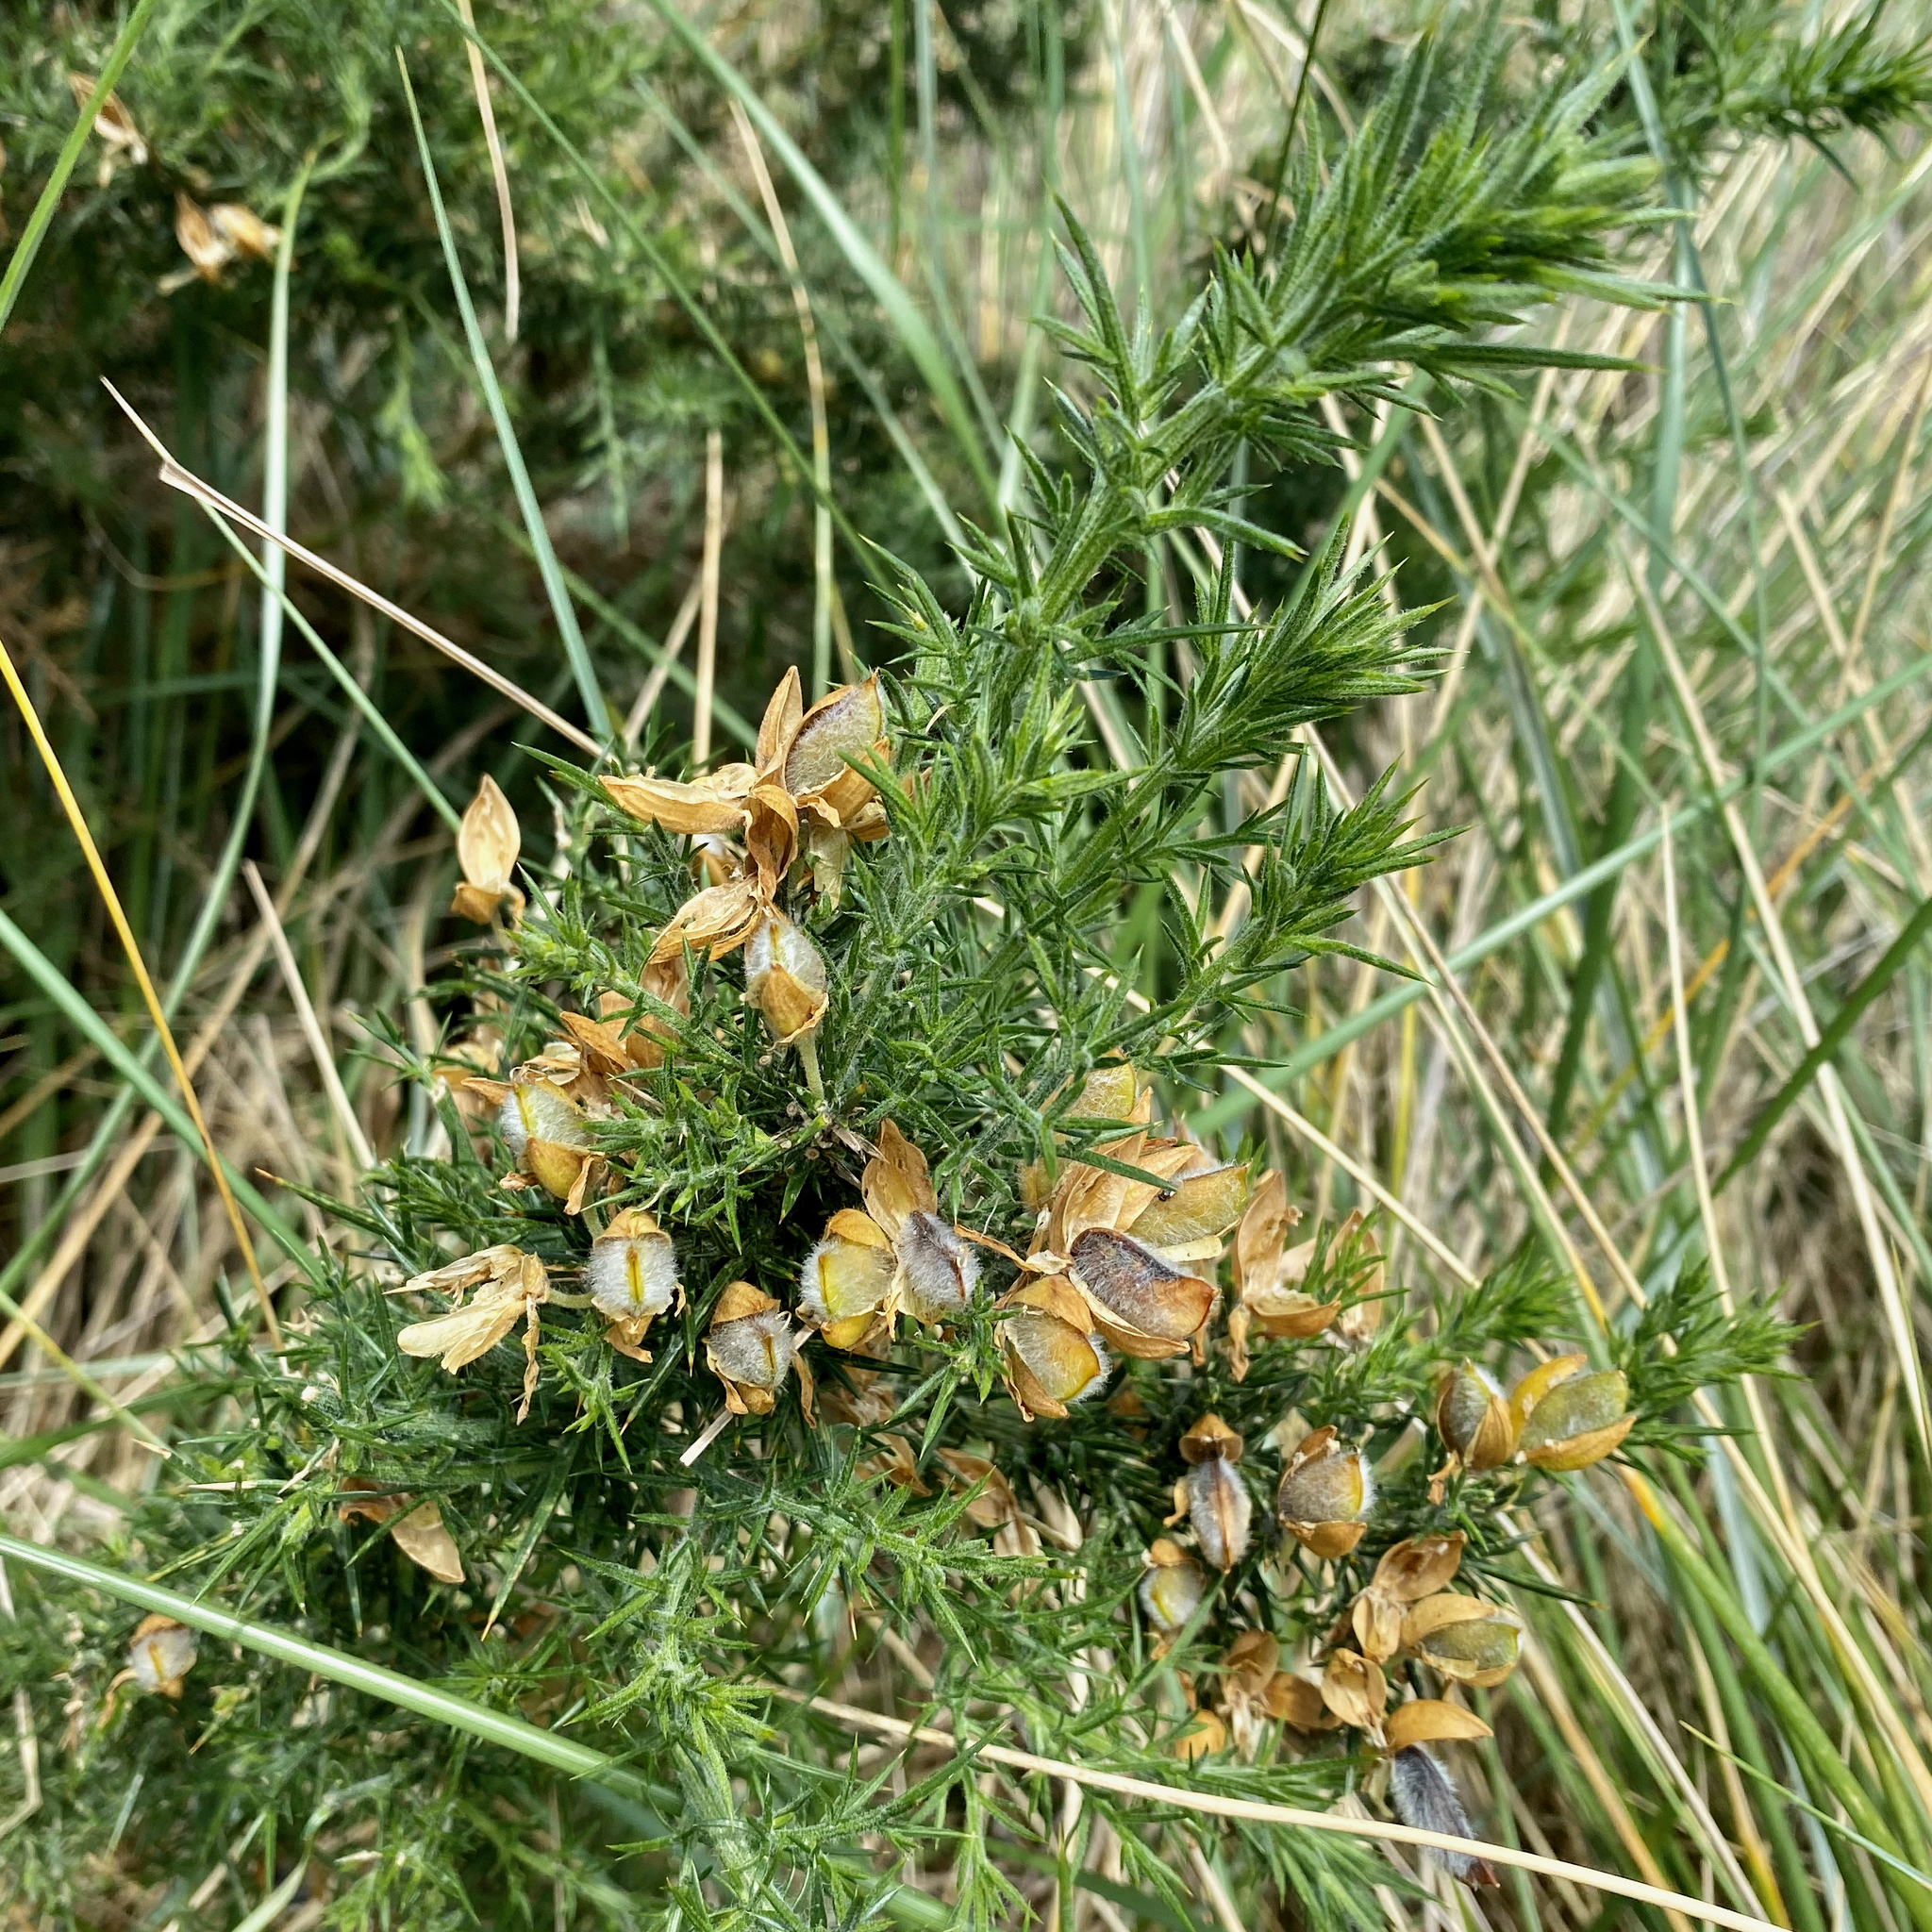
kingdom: Plantae
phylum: Tracheophyta
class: Magnoliopsida
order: Fabales
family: Fabaceae
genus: Ulex
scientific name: Ulex europaeus
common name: Common gorse
